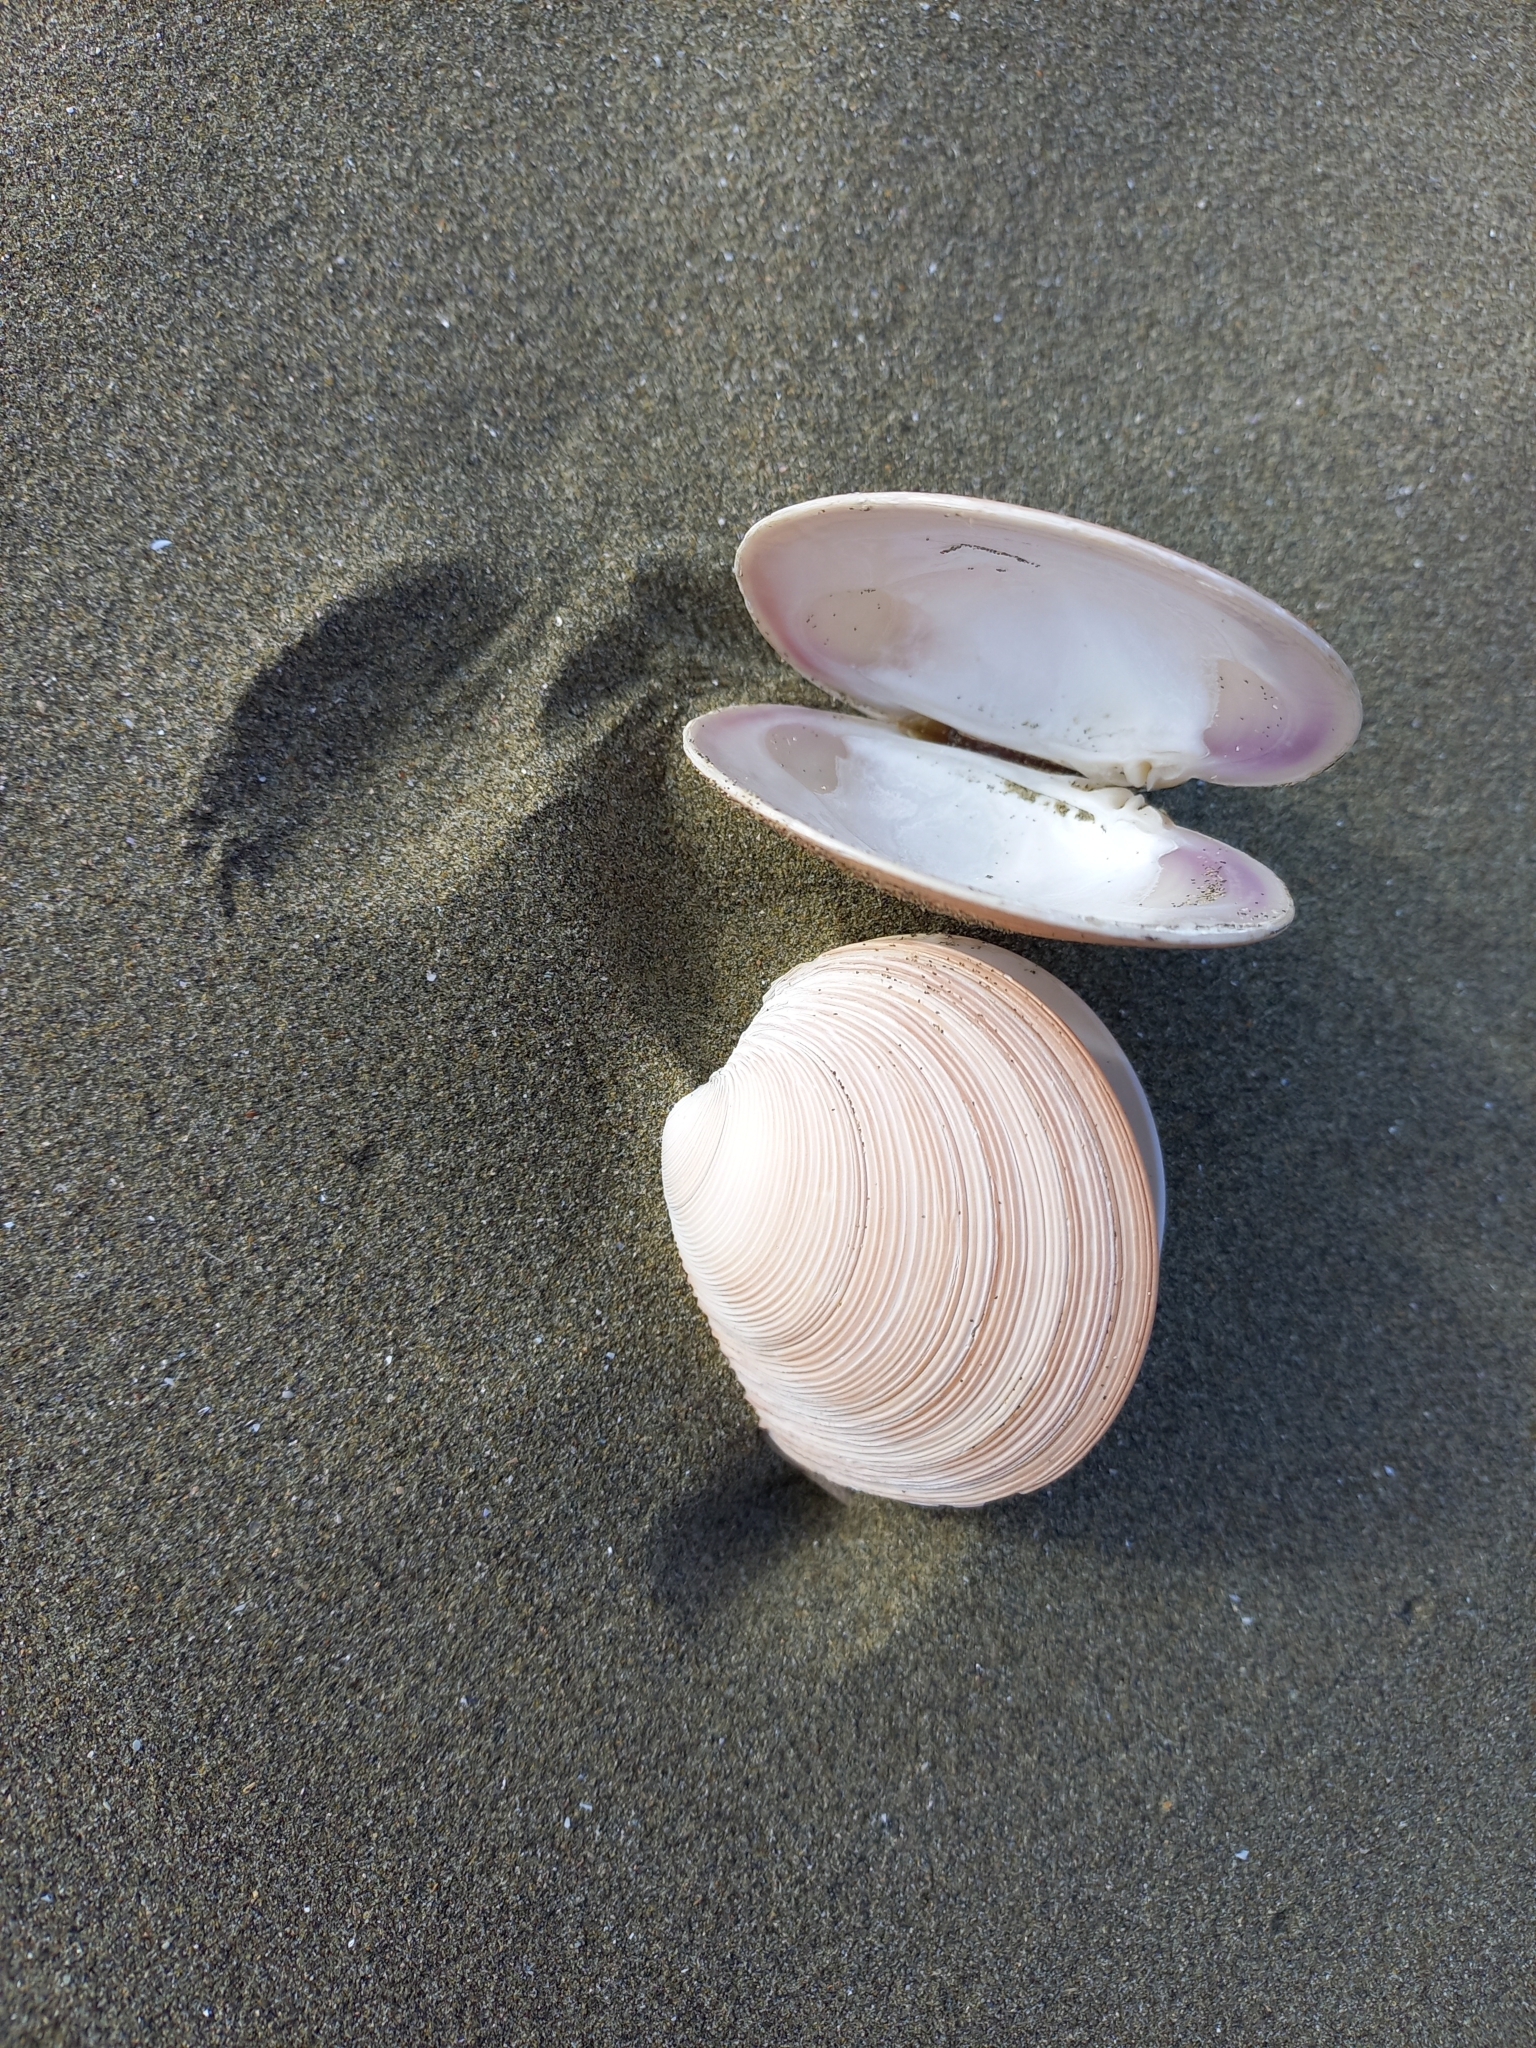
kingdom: Animalia
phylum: Mollusca
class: Bivalvia
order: Venerida
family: Veneridae
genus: Dosinia
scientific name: Dosinia anus
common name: Old-woman dosinia
